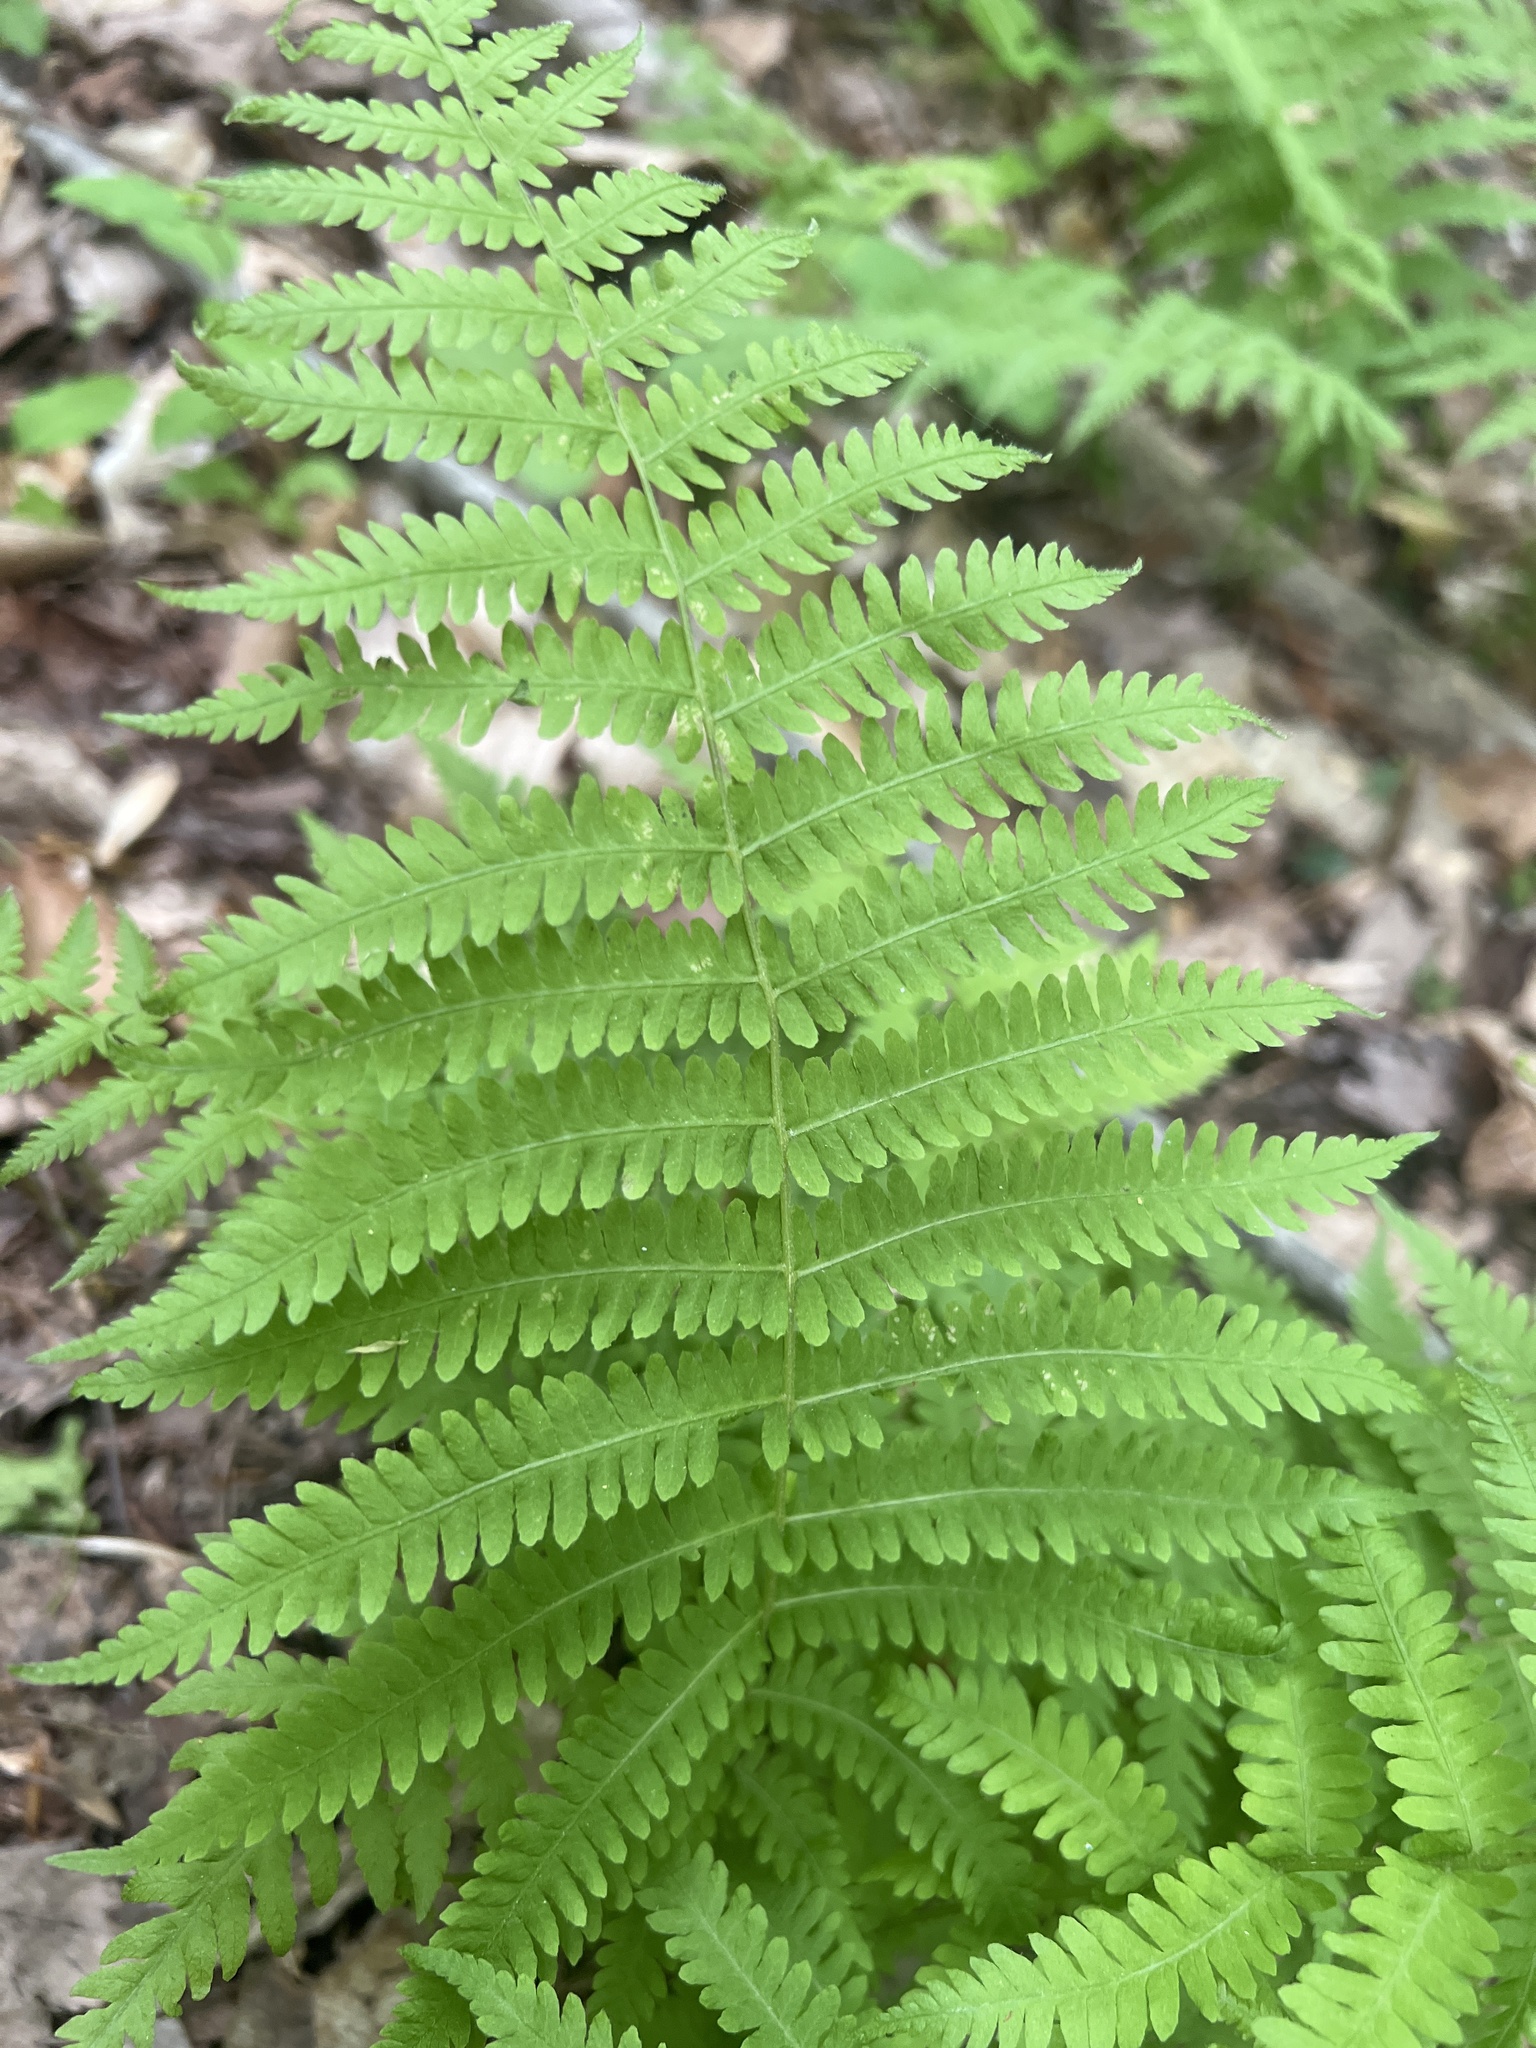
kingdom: Plantae
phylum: Tracheophyta
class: Polypodiopsida
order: Polypodiales
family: Thelypteridaceae
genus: Amauropelta
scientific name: Amauropelta noveboracensis
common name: New york fern
